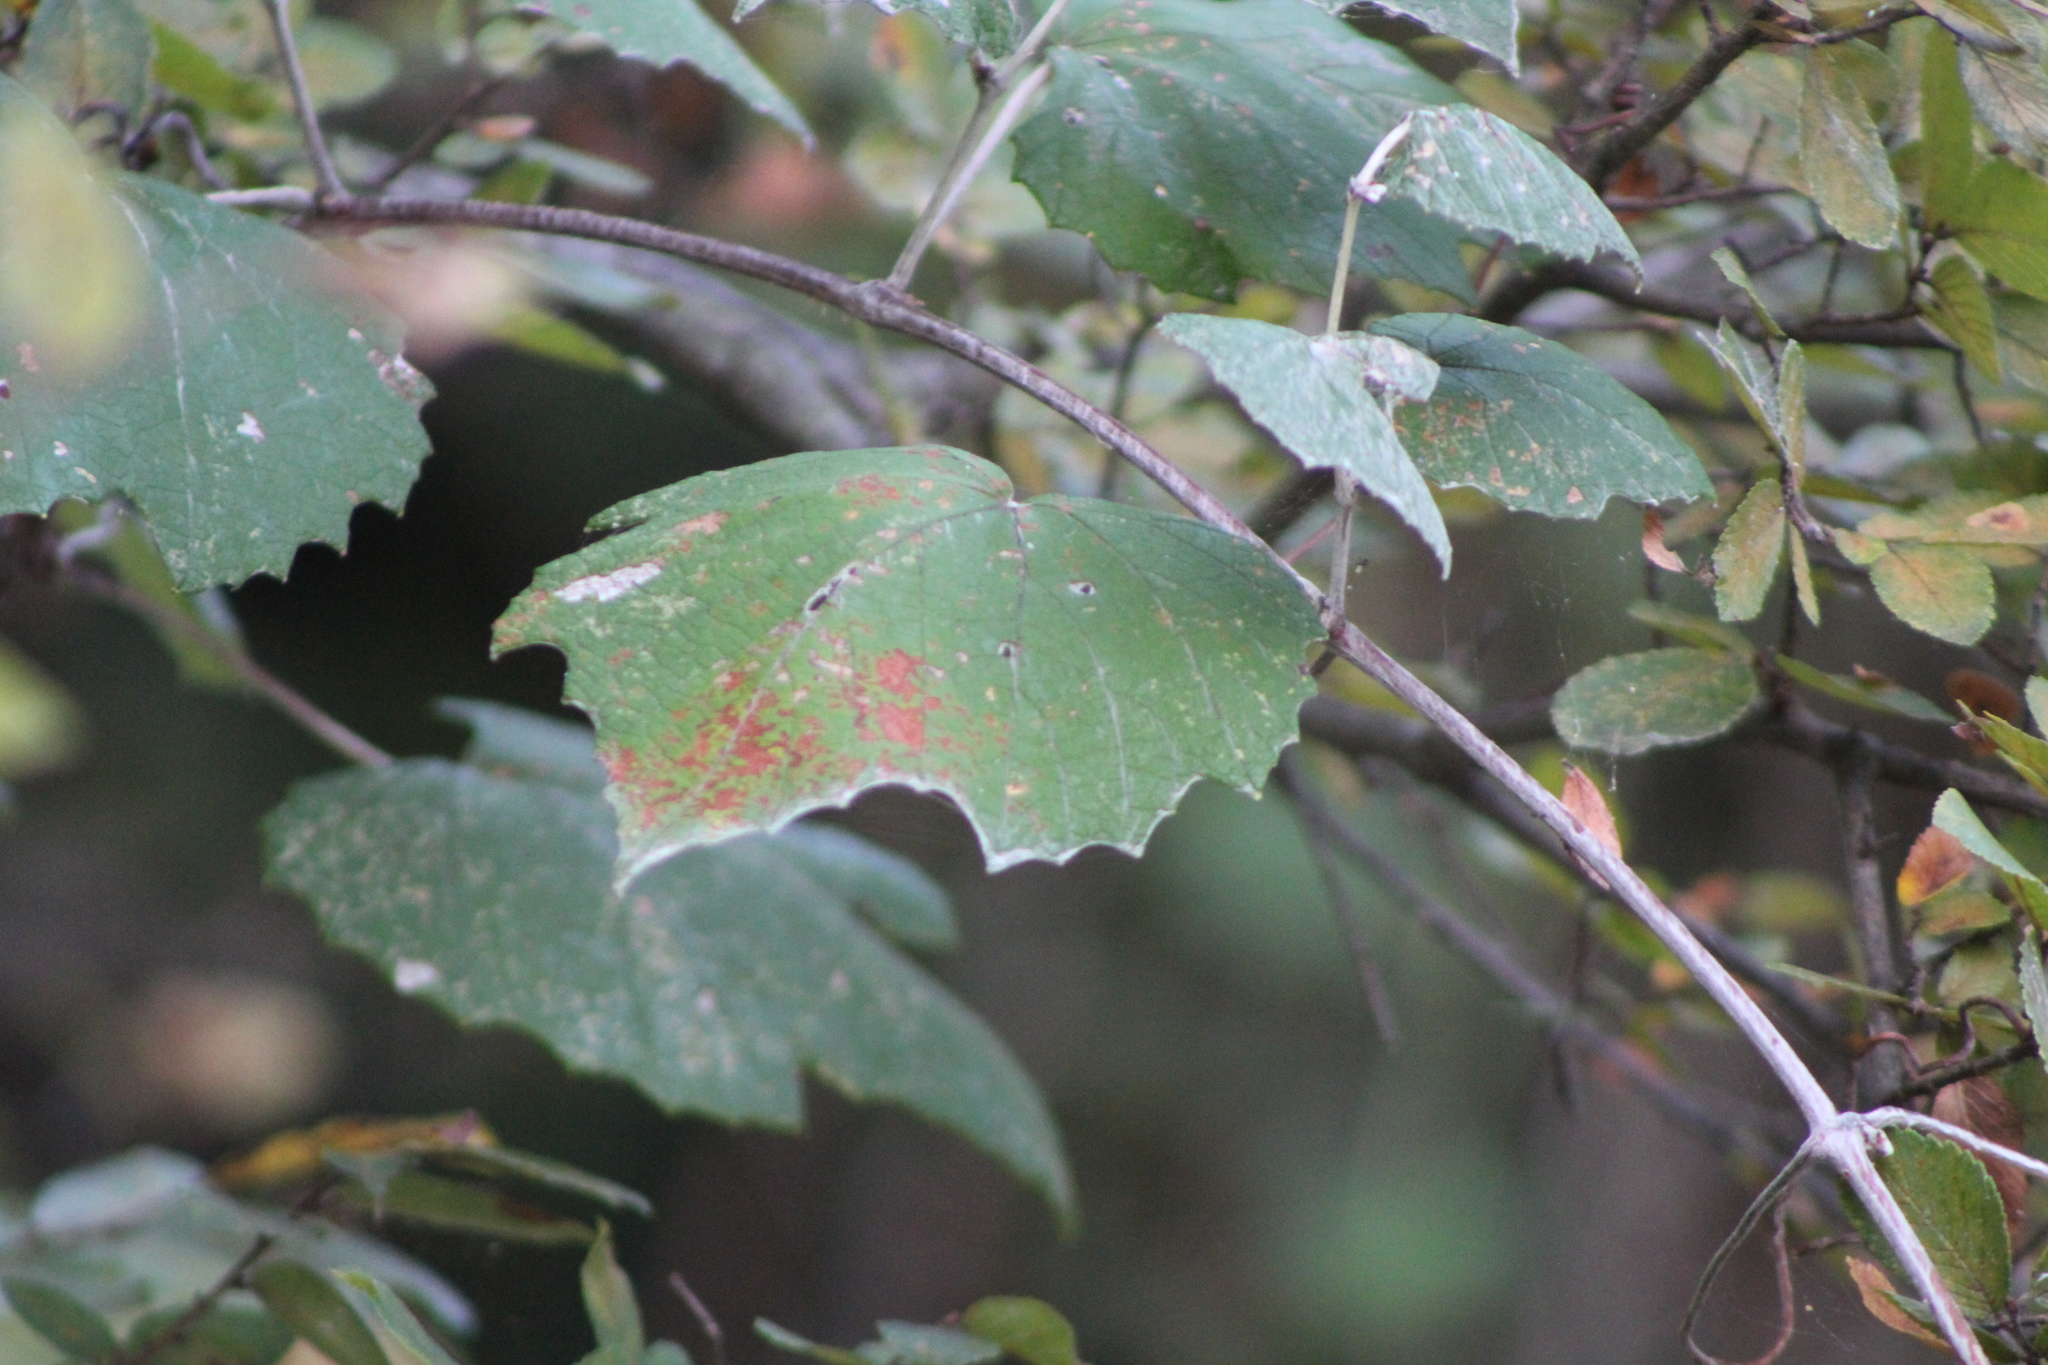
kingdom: Plantae
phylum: Tracheophyta
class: Magnoliopsida
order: Vitales
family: Vitaceae
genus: Vitis
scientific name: Vitis mustangensis
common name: Mustang grape
